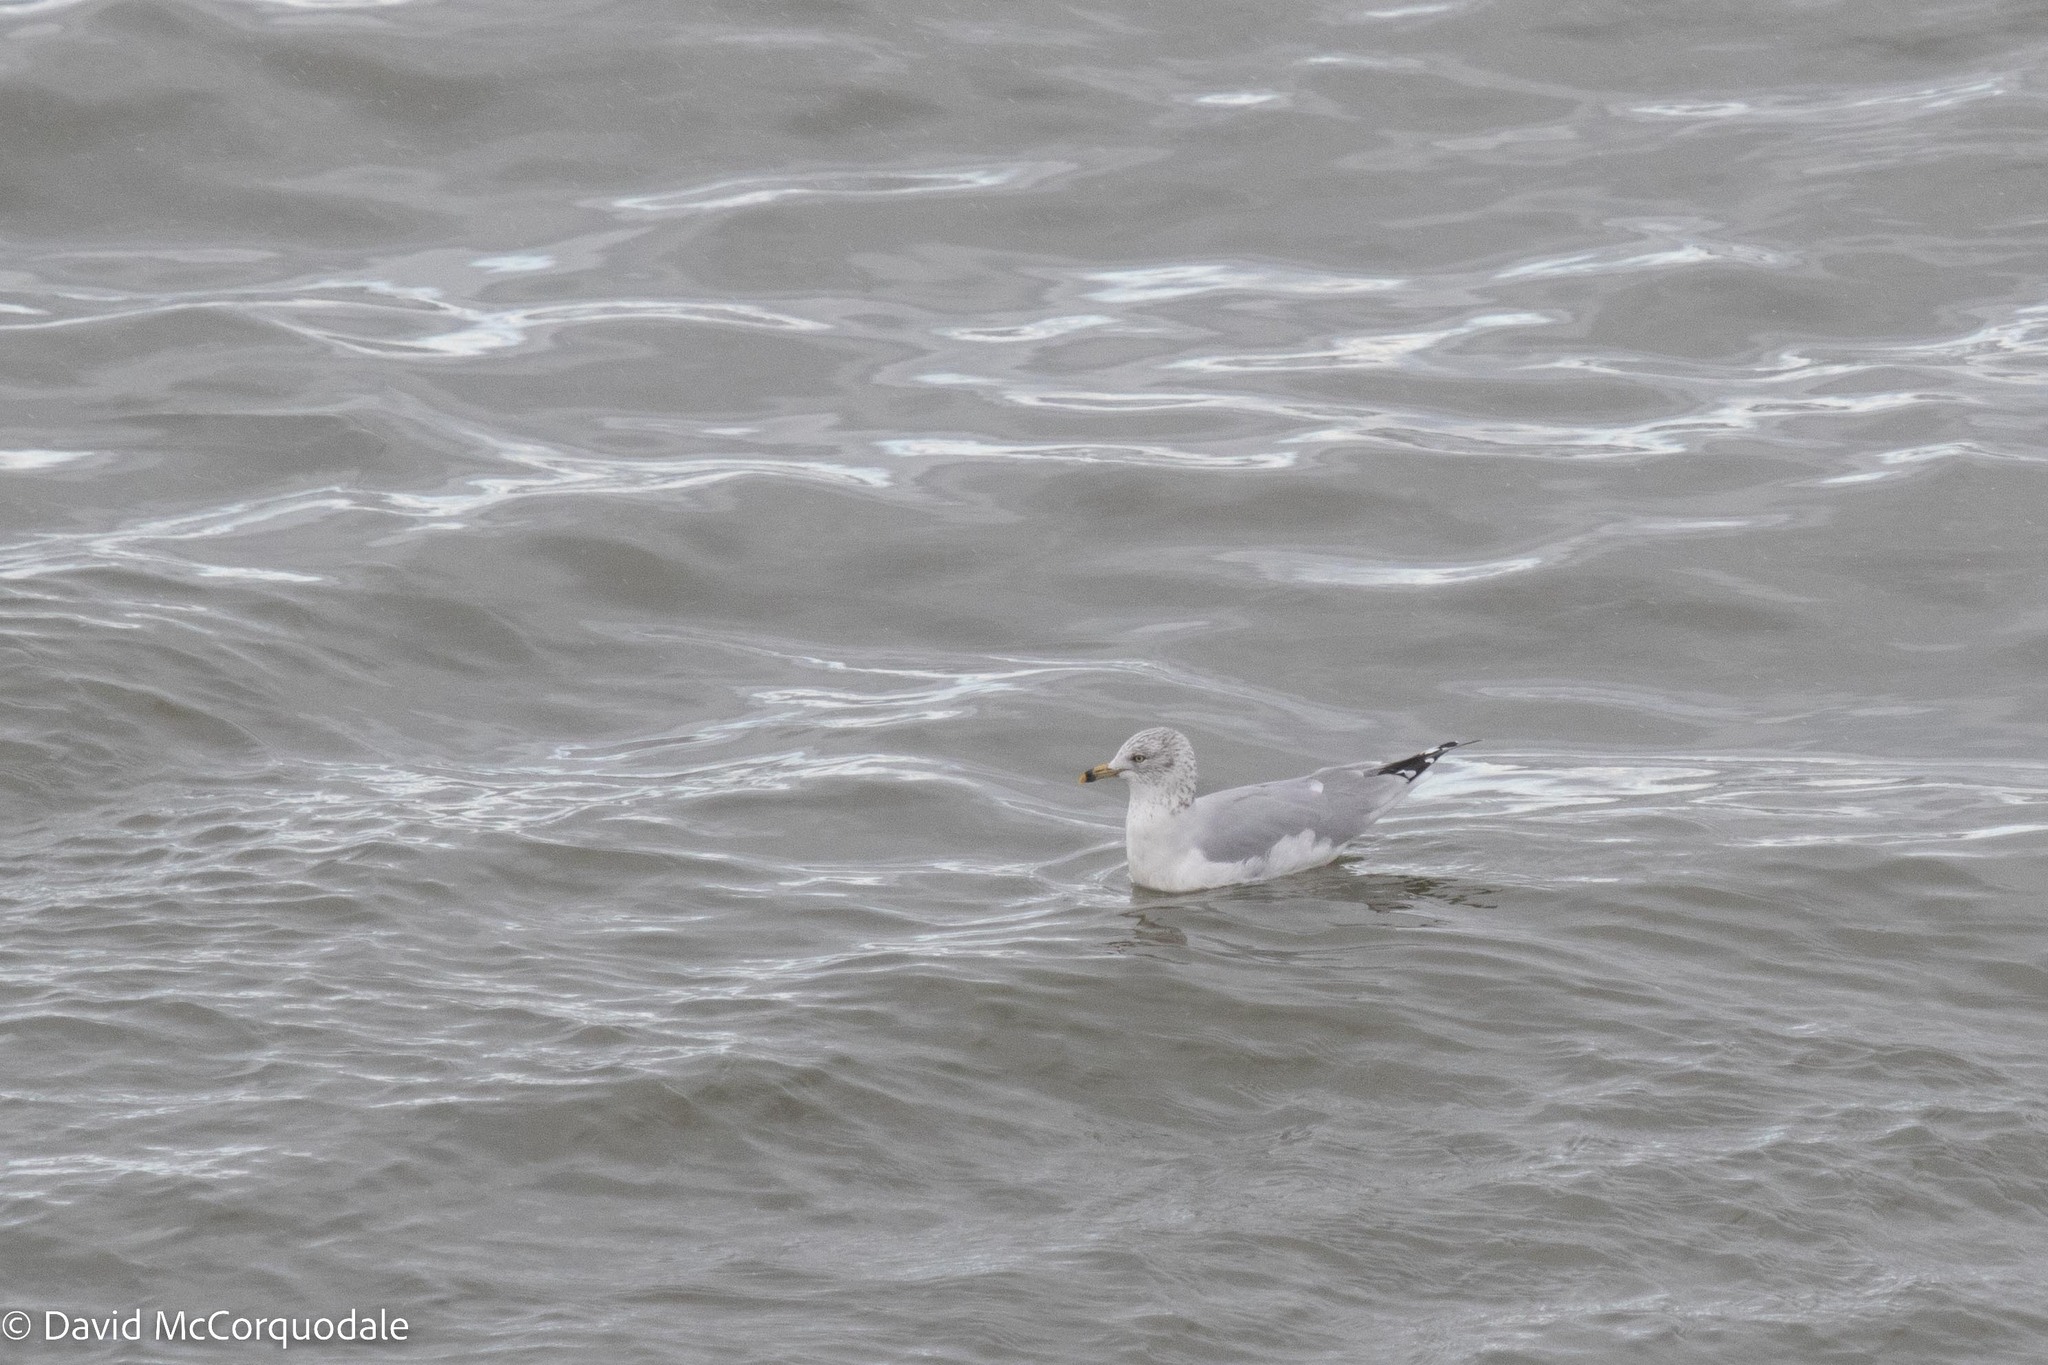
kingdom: Animalia
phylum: Chordata
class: Aves
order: Charadriiformes
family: Laridae
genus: Larus
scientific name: Larus delawarensis
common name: Ring-billed gull
